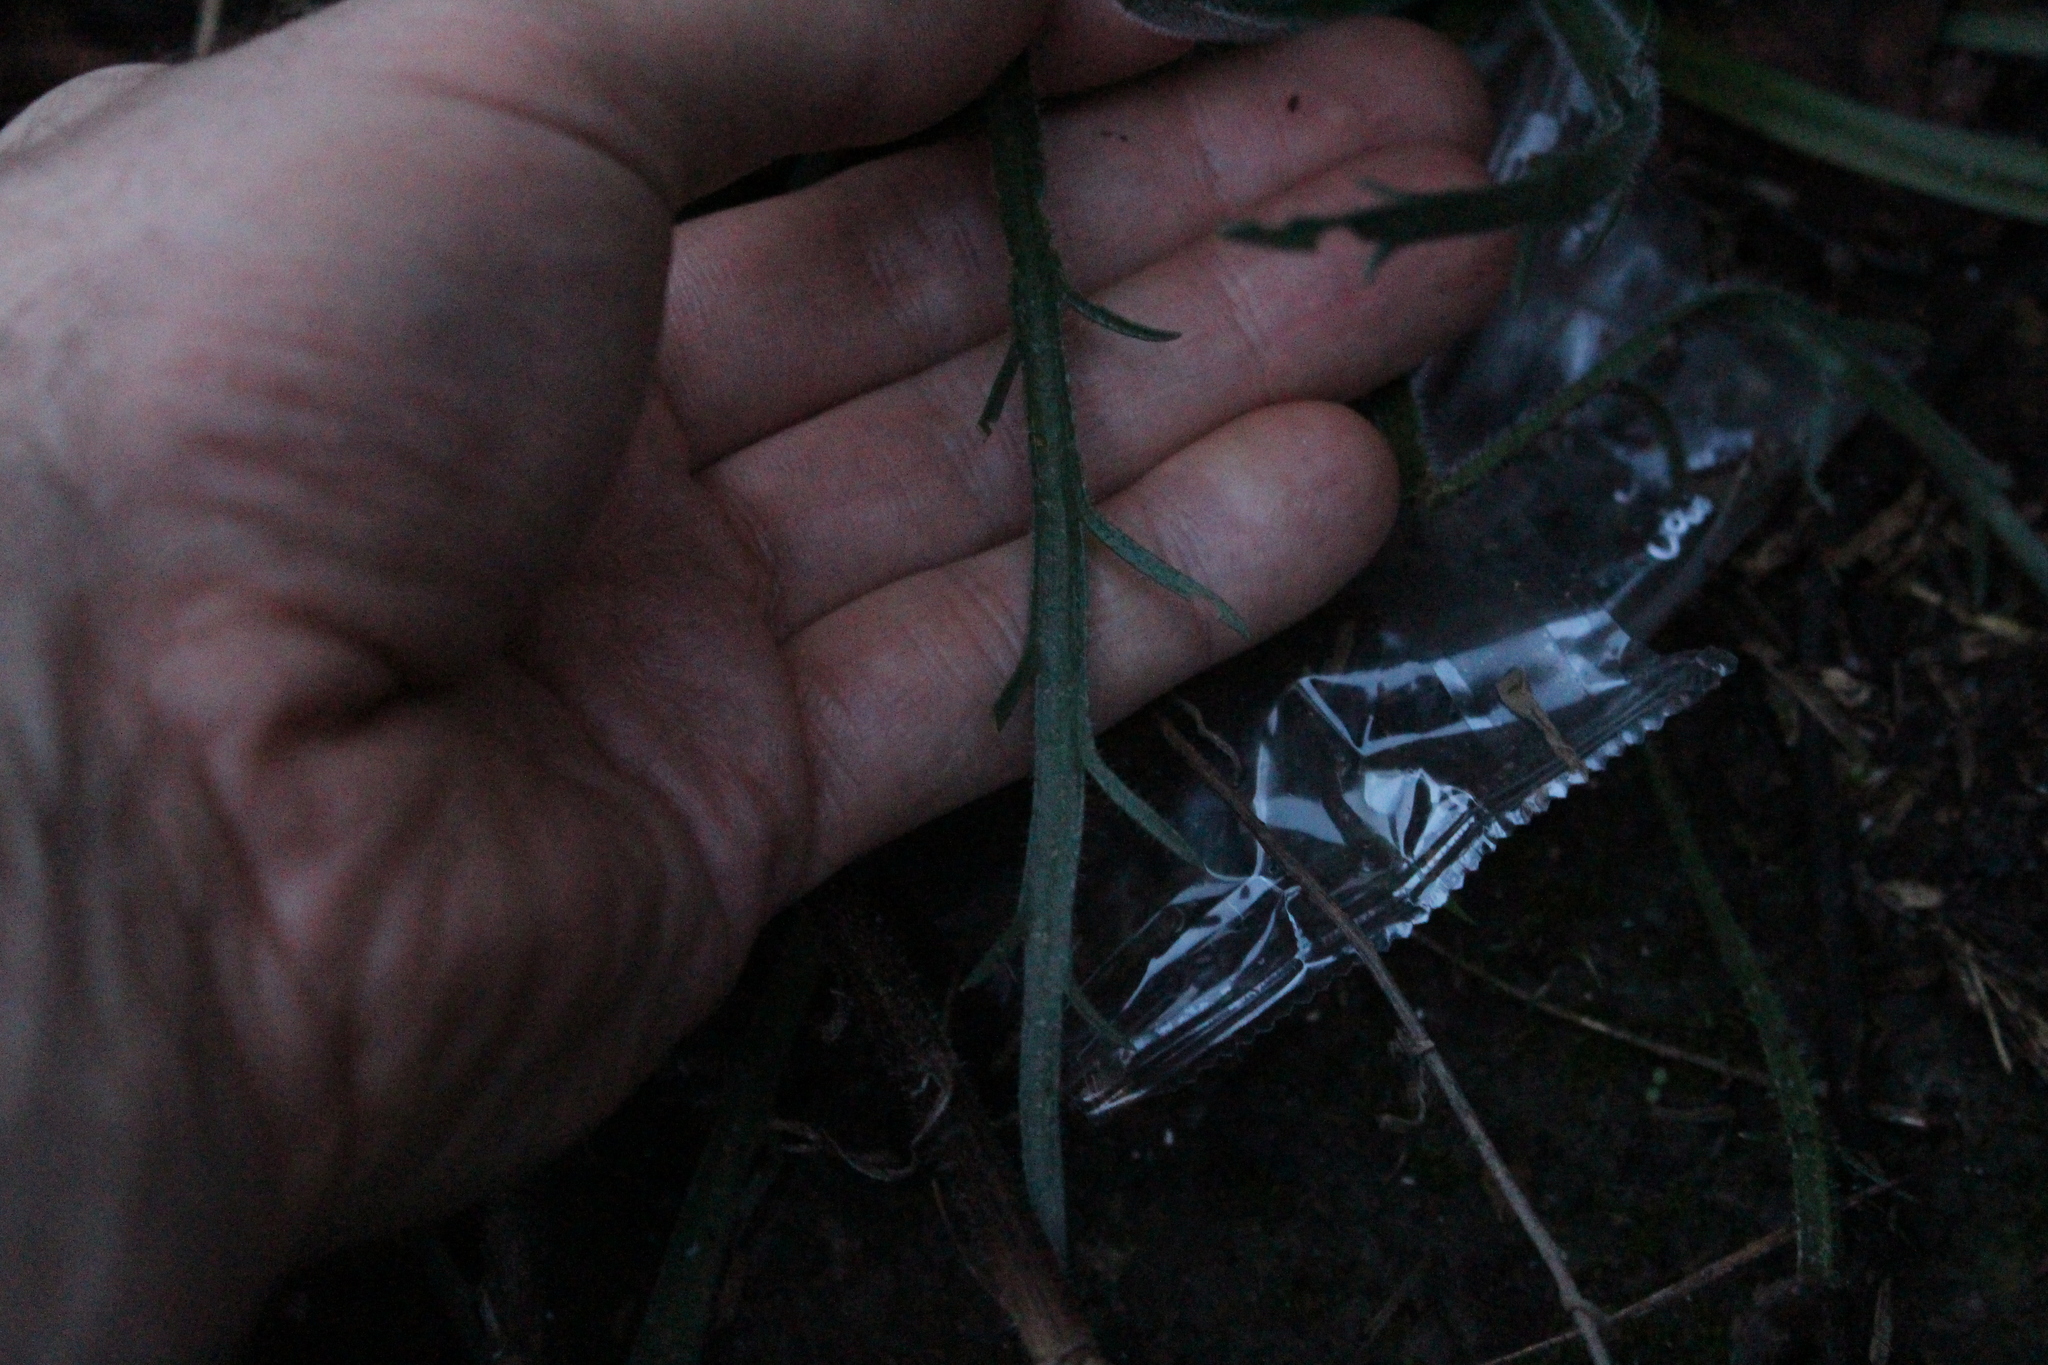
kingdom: Plantae
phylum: Tracheophyta
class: Magnoliopsida
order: Lamiales
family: Plantaginaceae
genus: Plantago
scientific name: Plantago coronopus
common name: Buck's-horn plantain
